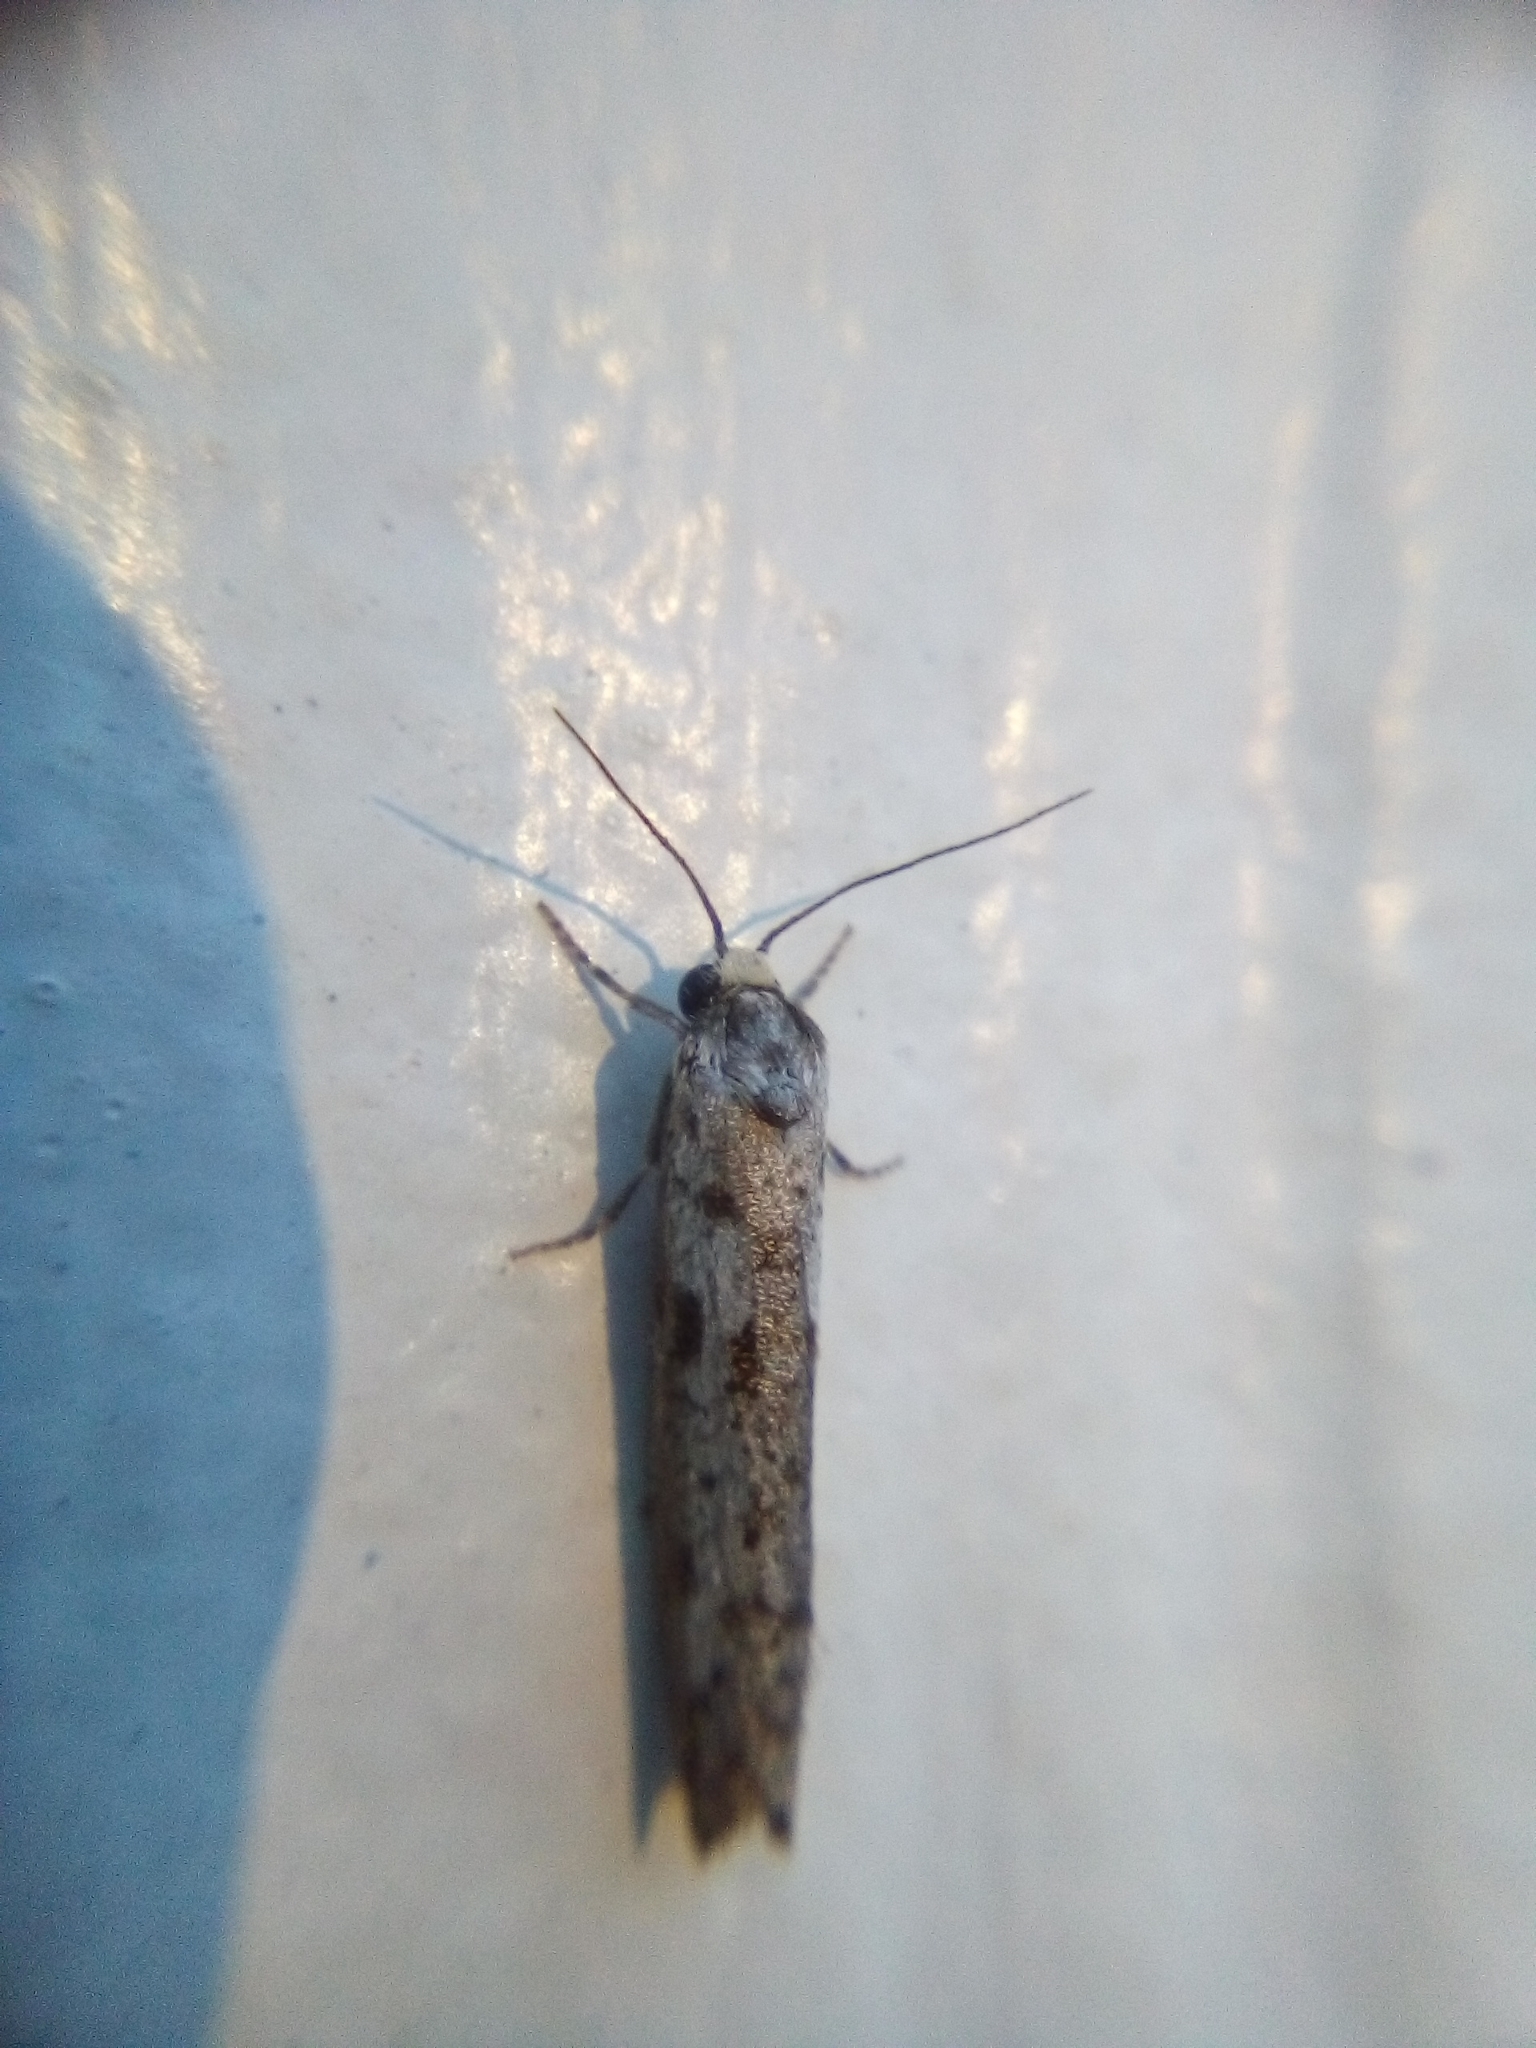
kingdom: Animalia
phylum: Arthropoda
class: Insecta
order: Lepidoptera
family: Psychidae
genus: Lepidoscia
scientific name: Lepidoscia protorna
